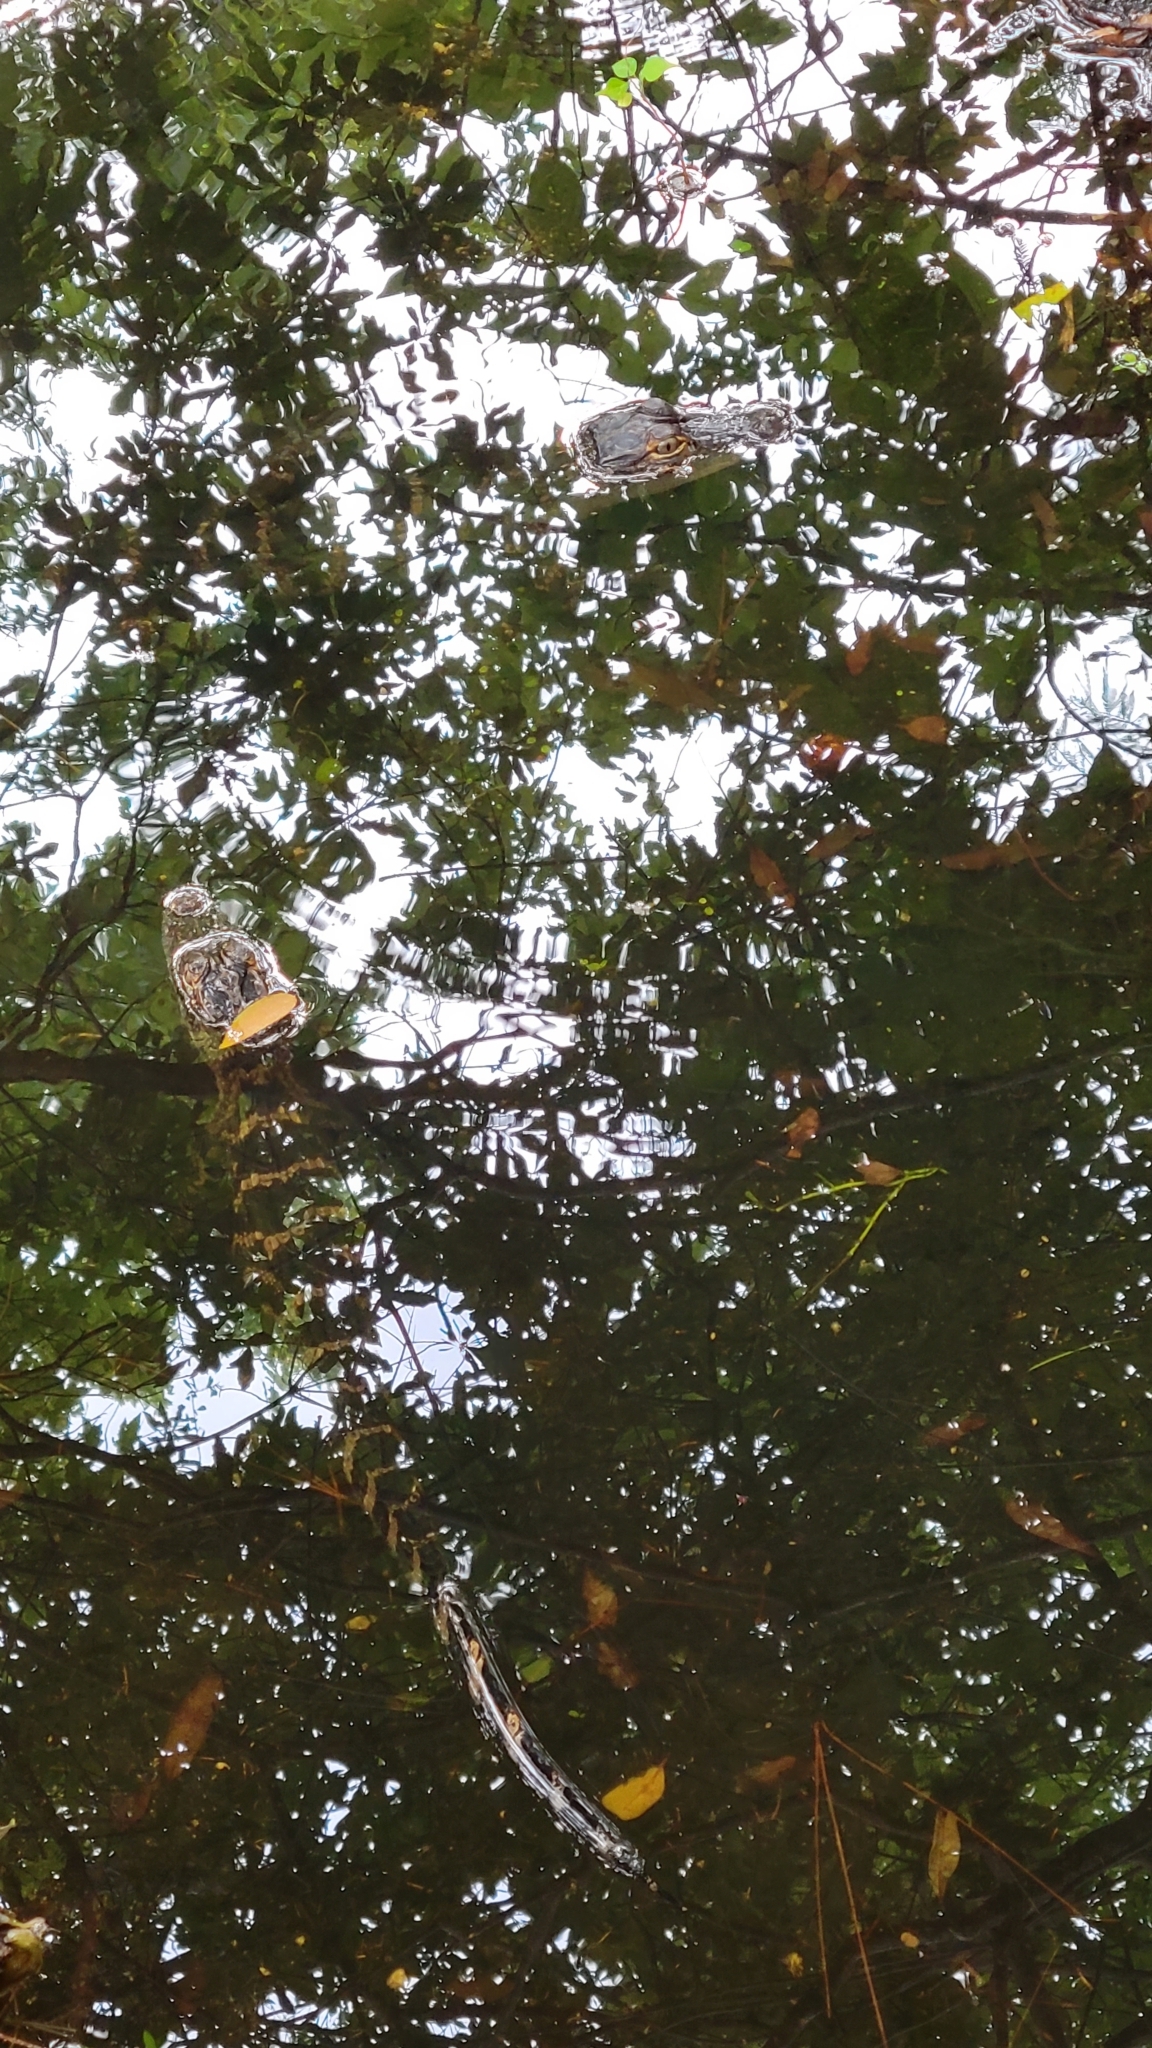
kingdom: Animalia
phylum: Chordata
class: Crocodylia
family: Alligatoridae
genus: Alligator
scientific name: Alligator mississippiensis
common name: American alligator
